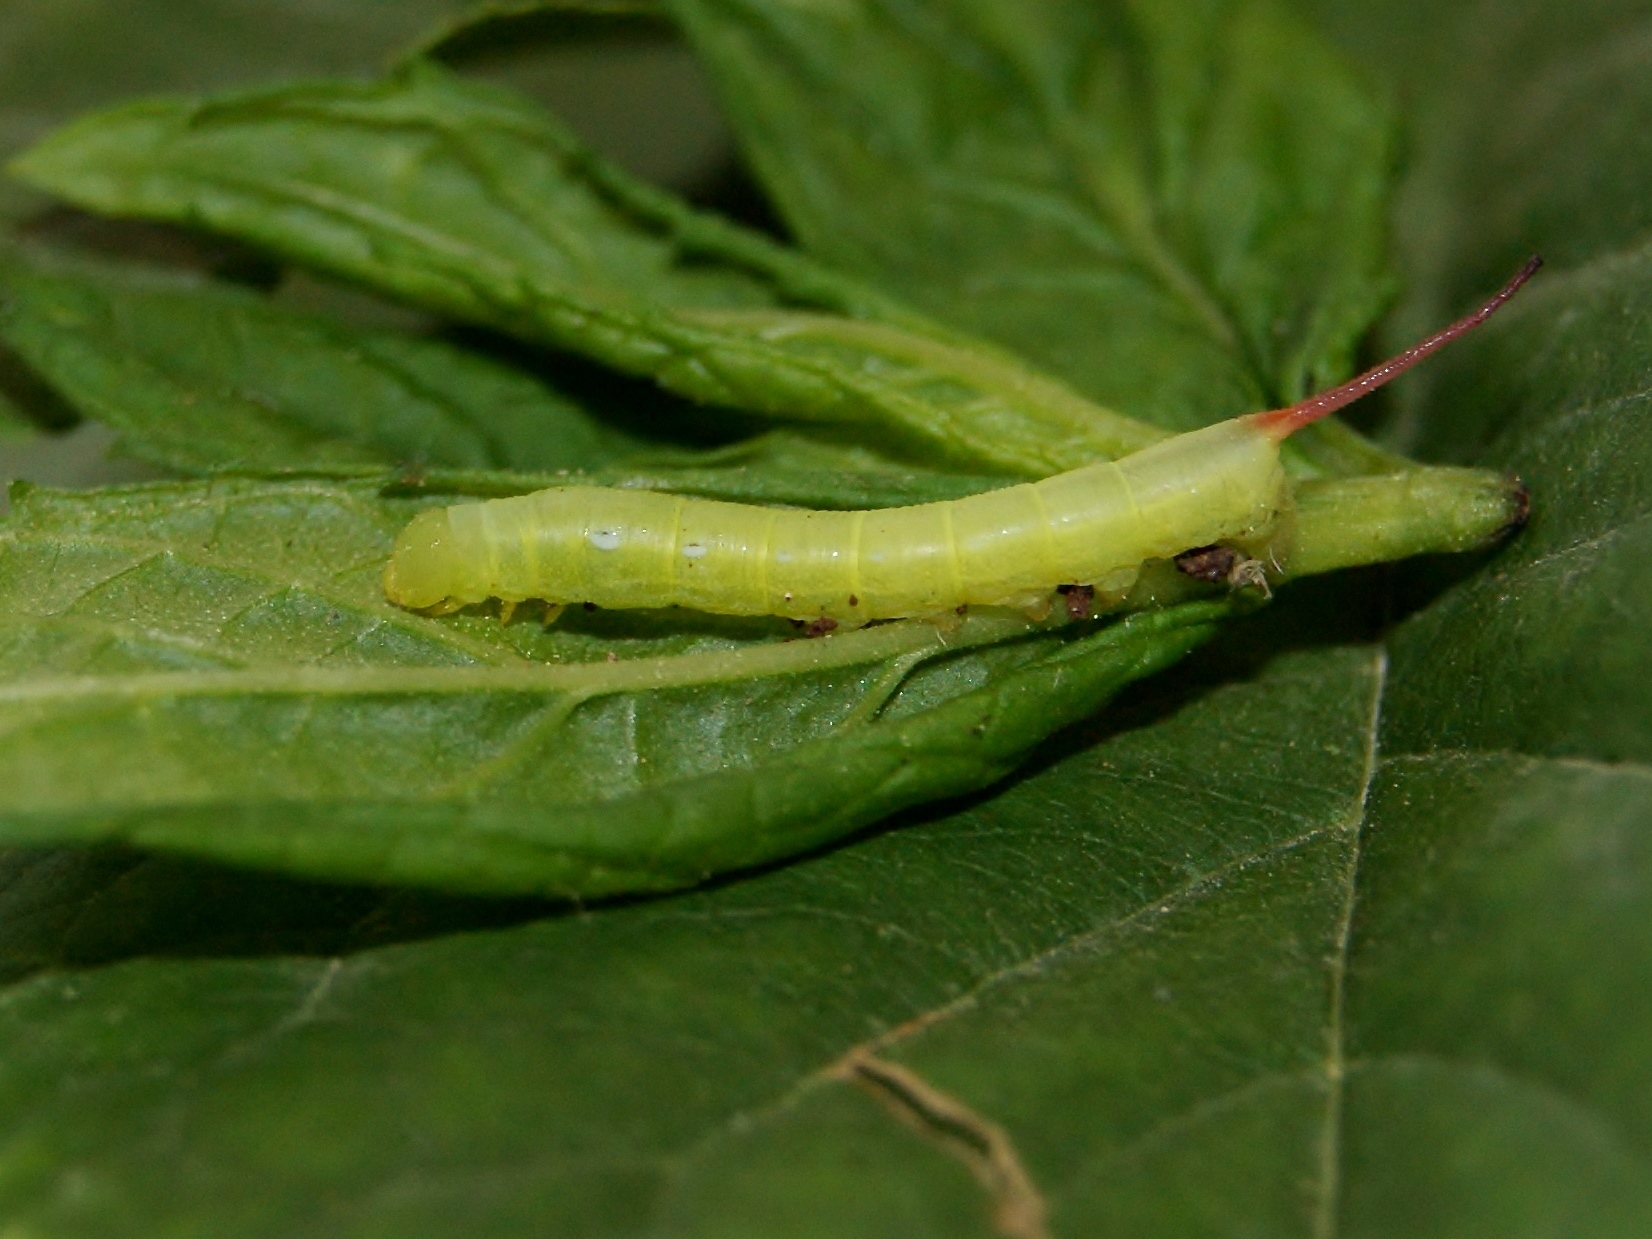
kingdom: Animalia
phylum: Arthropoda
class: Insecta
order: Lepidoptera
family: Sphingidae
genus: Theretra
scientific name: Theretra alecto
